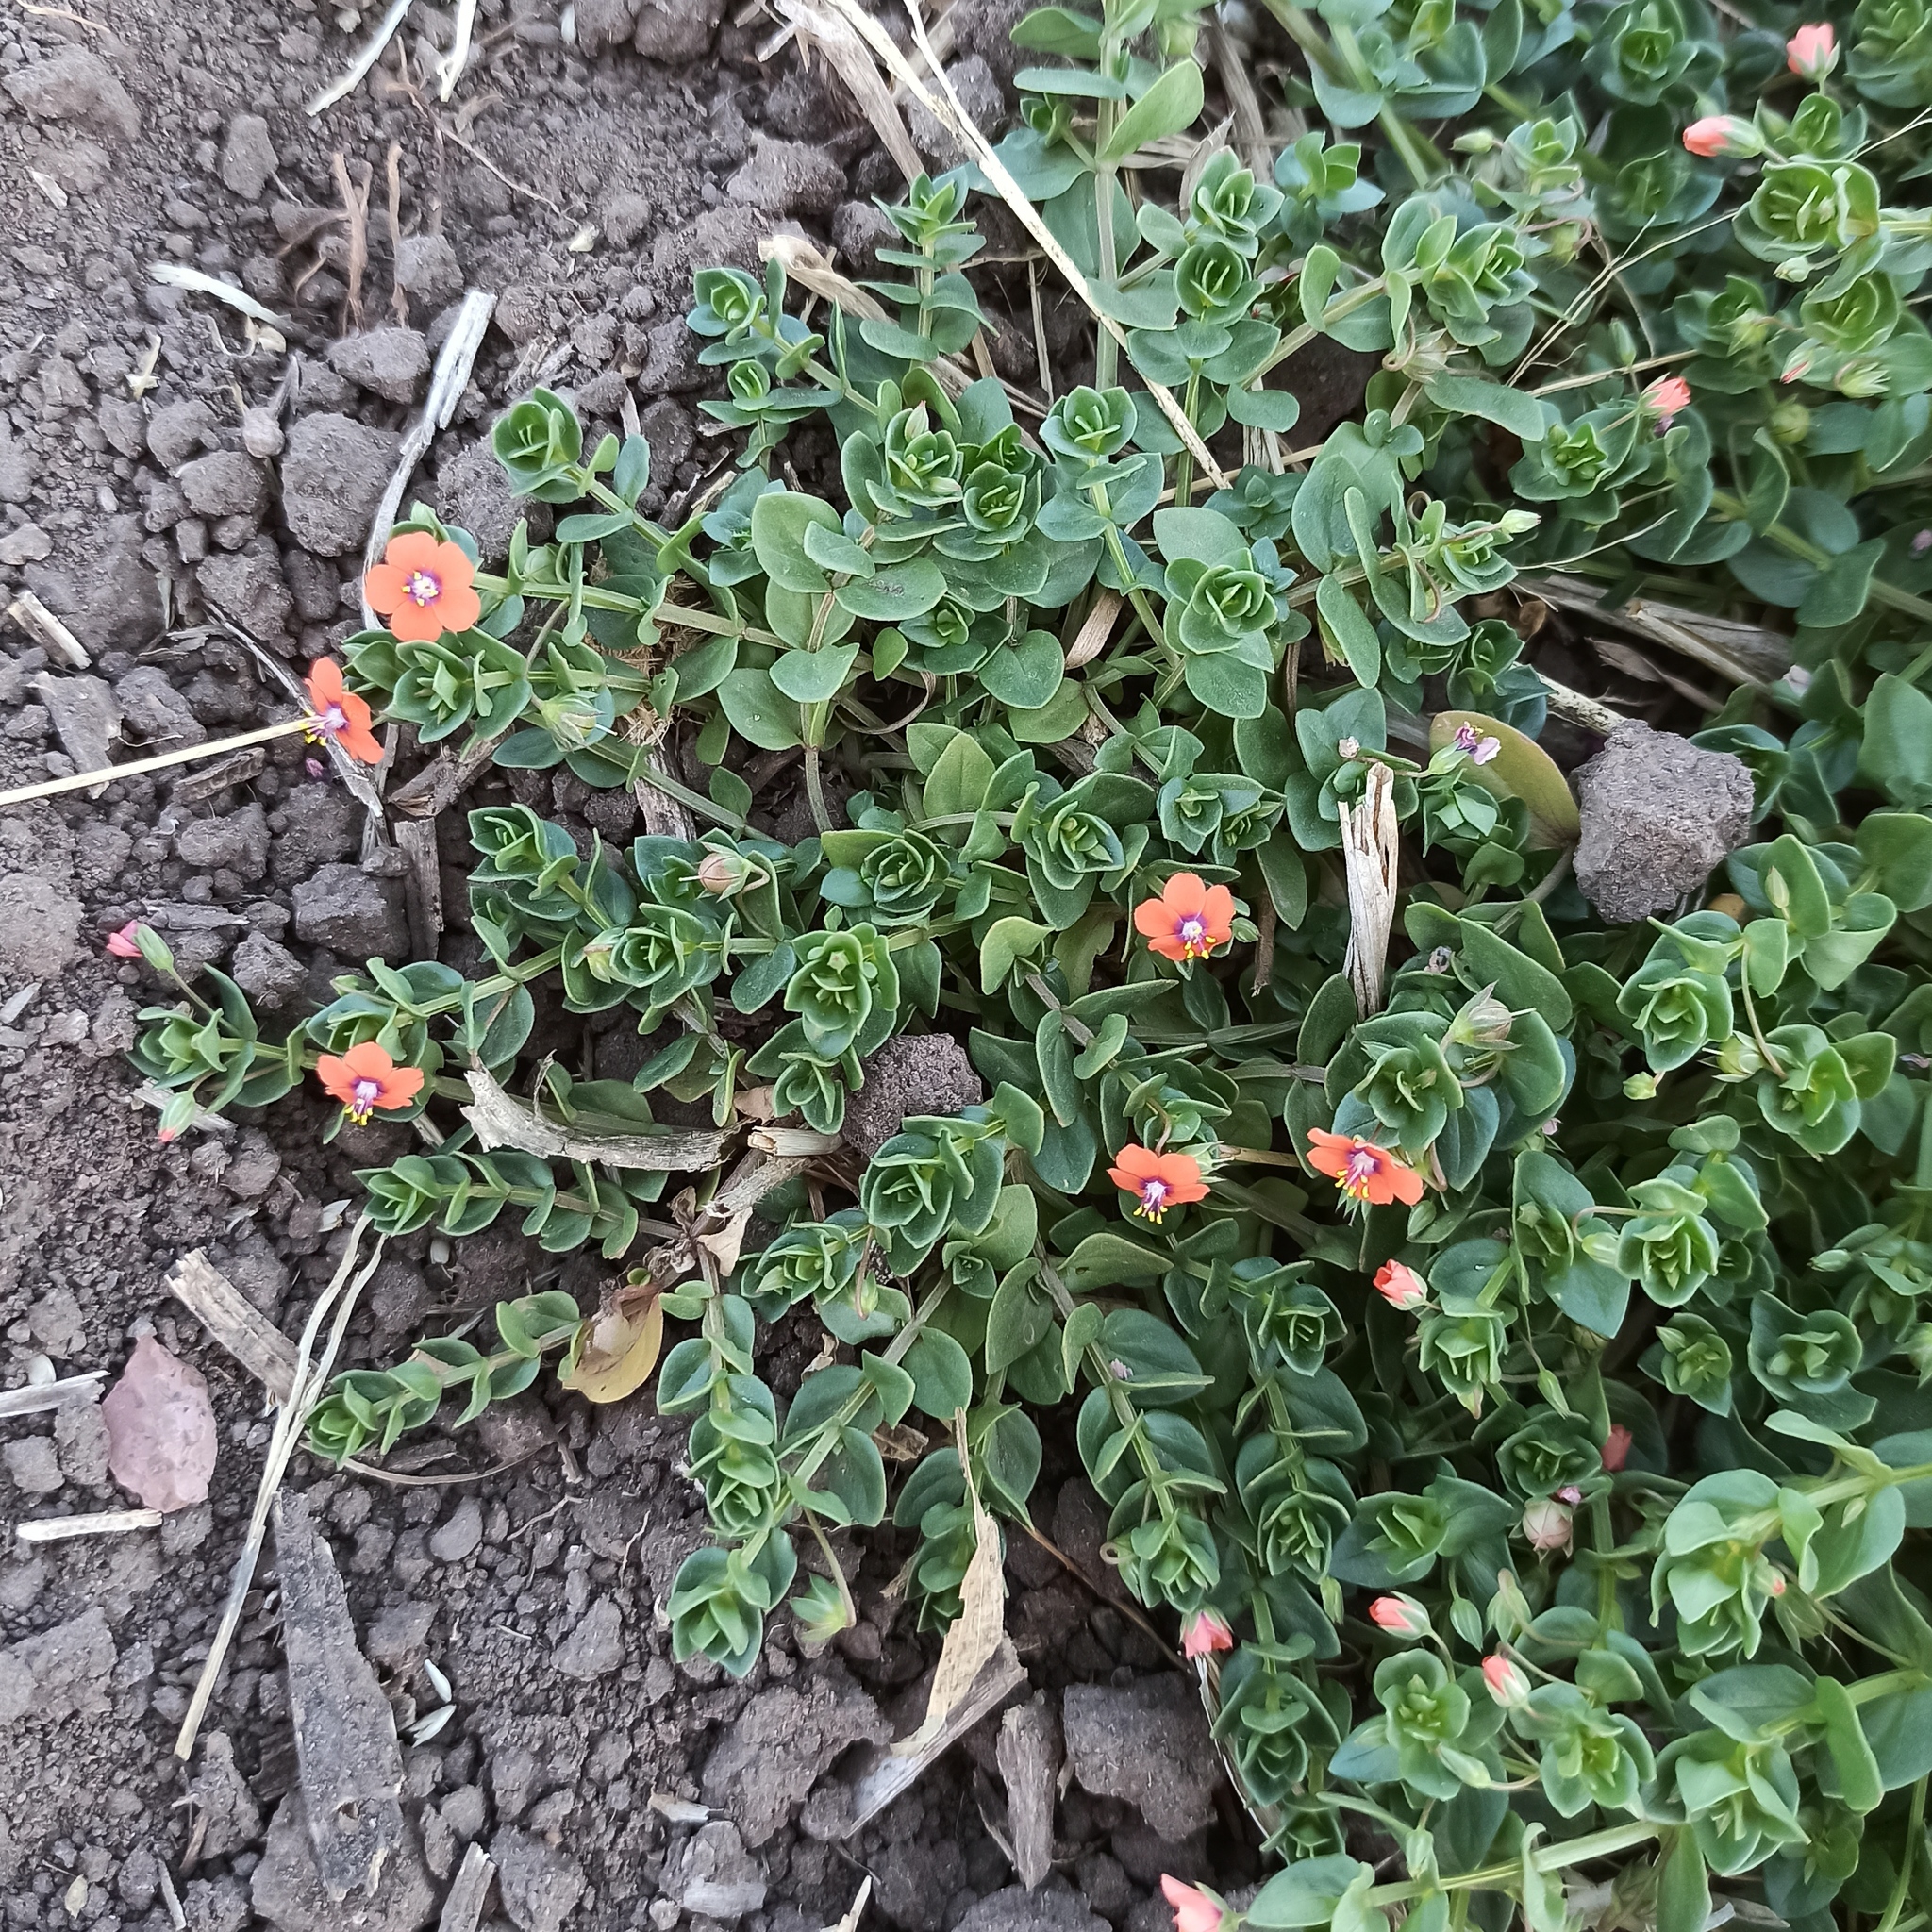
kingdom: Plantae
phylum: Tracheophyta
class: Magnoliopsida
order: Ericales
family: Primulaceae
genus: Lysimachia
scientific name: Lysimachia arvensis
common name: Scarlet pimpernel
